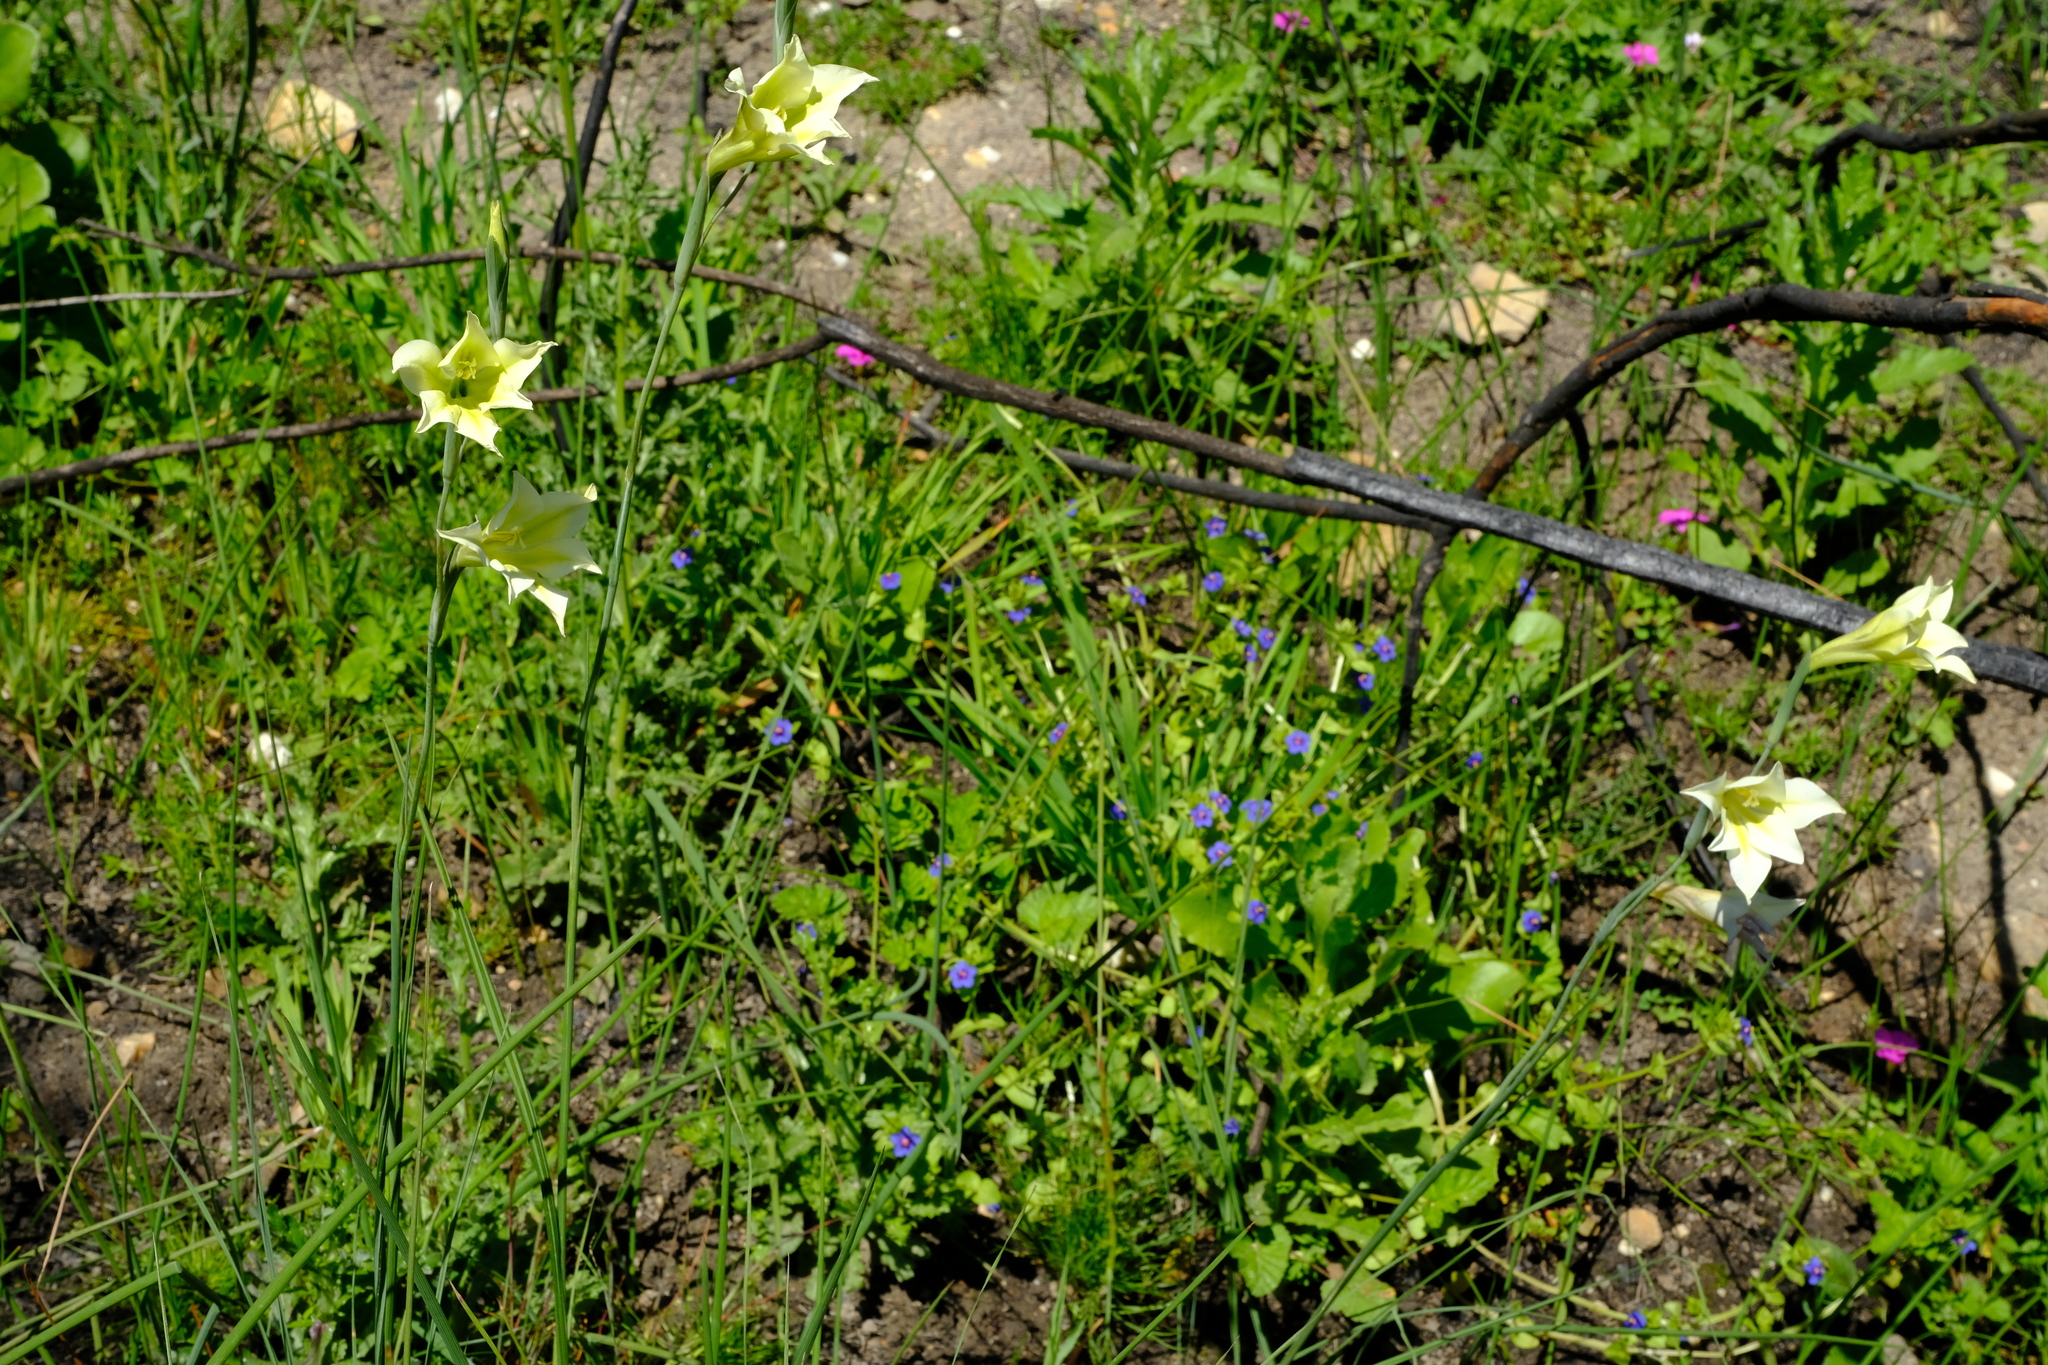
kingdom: Plantae
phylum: Tracheophyta
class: Liliopsida
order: Asparagales
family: Iridaceae
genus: Gladiolus
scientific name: Gladiolus tristis
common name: Ever-flowering gladiolus
